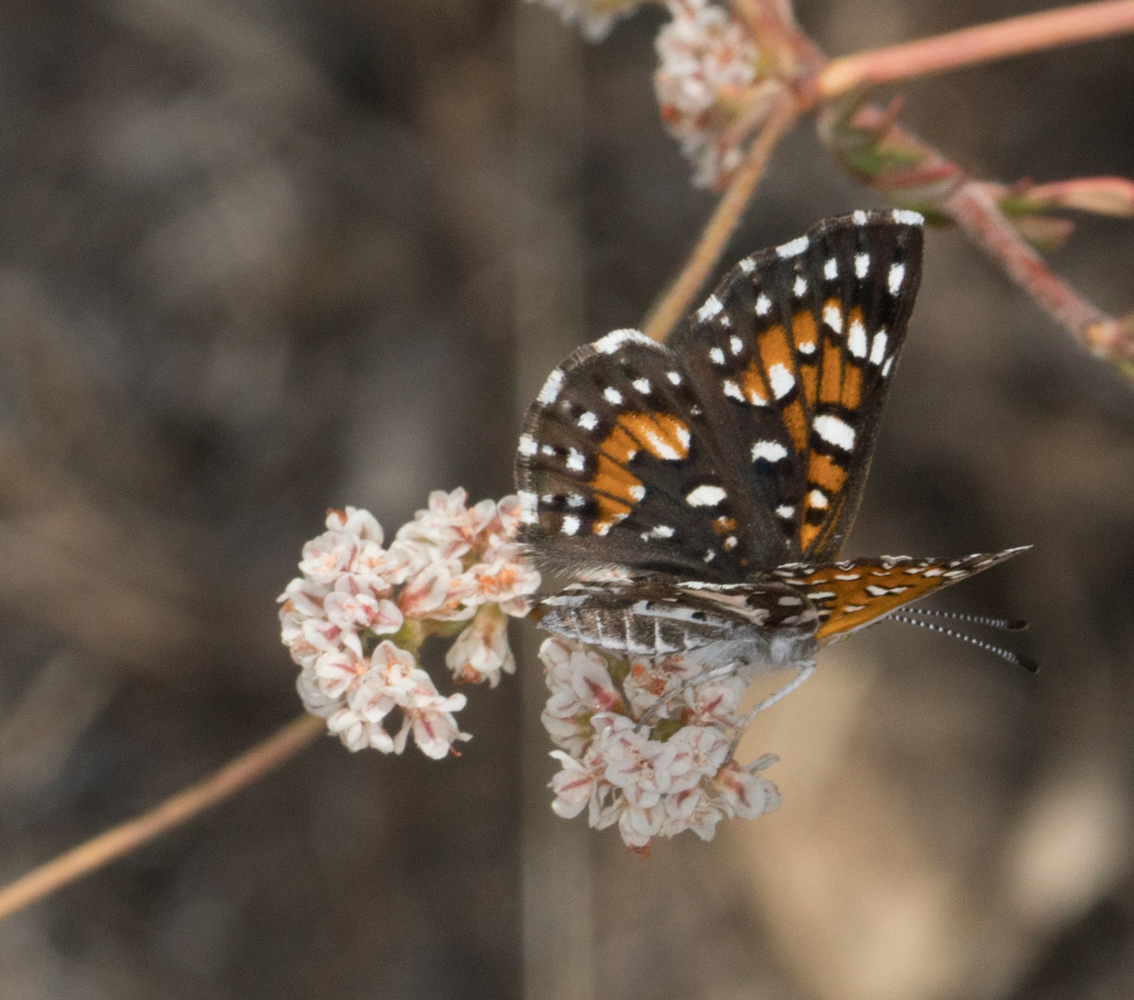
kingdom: Animalia
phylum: Arthropoda
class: Insecta
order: Lepidoptera
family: Riodinidae
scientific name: Riodinidae
